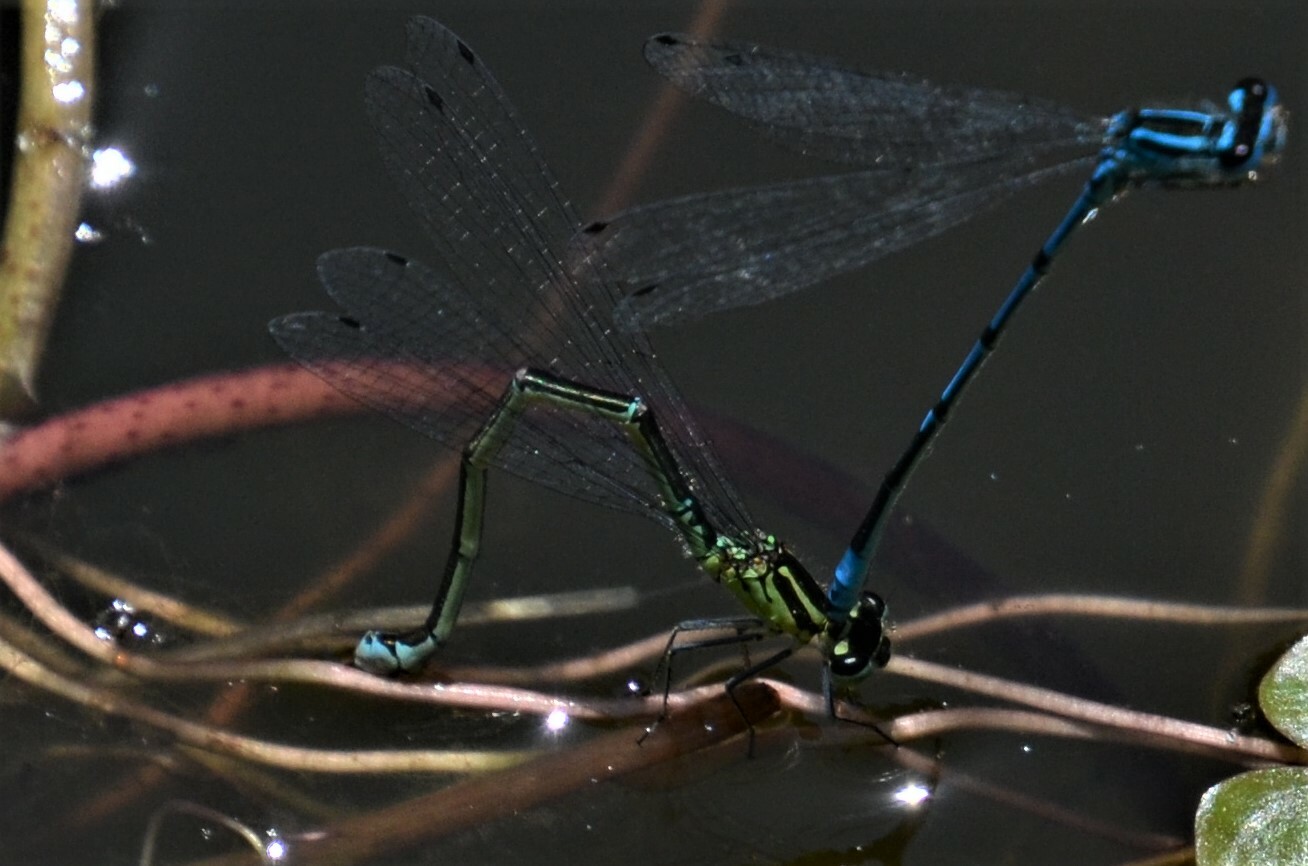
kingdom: Animalia
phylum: Arthropoda
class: Insecta
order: Odonata
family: Coenagrionidae
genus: Coenagrion
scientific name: Coenagrion puella
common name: Azure damselfly
